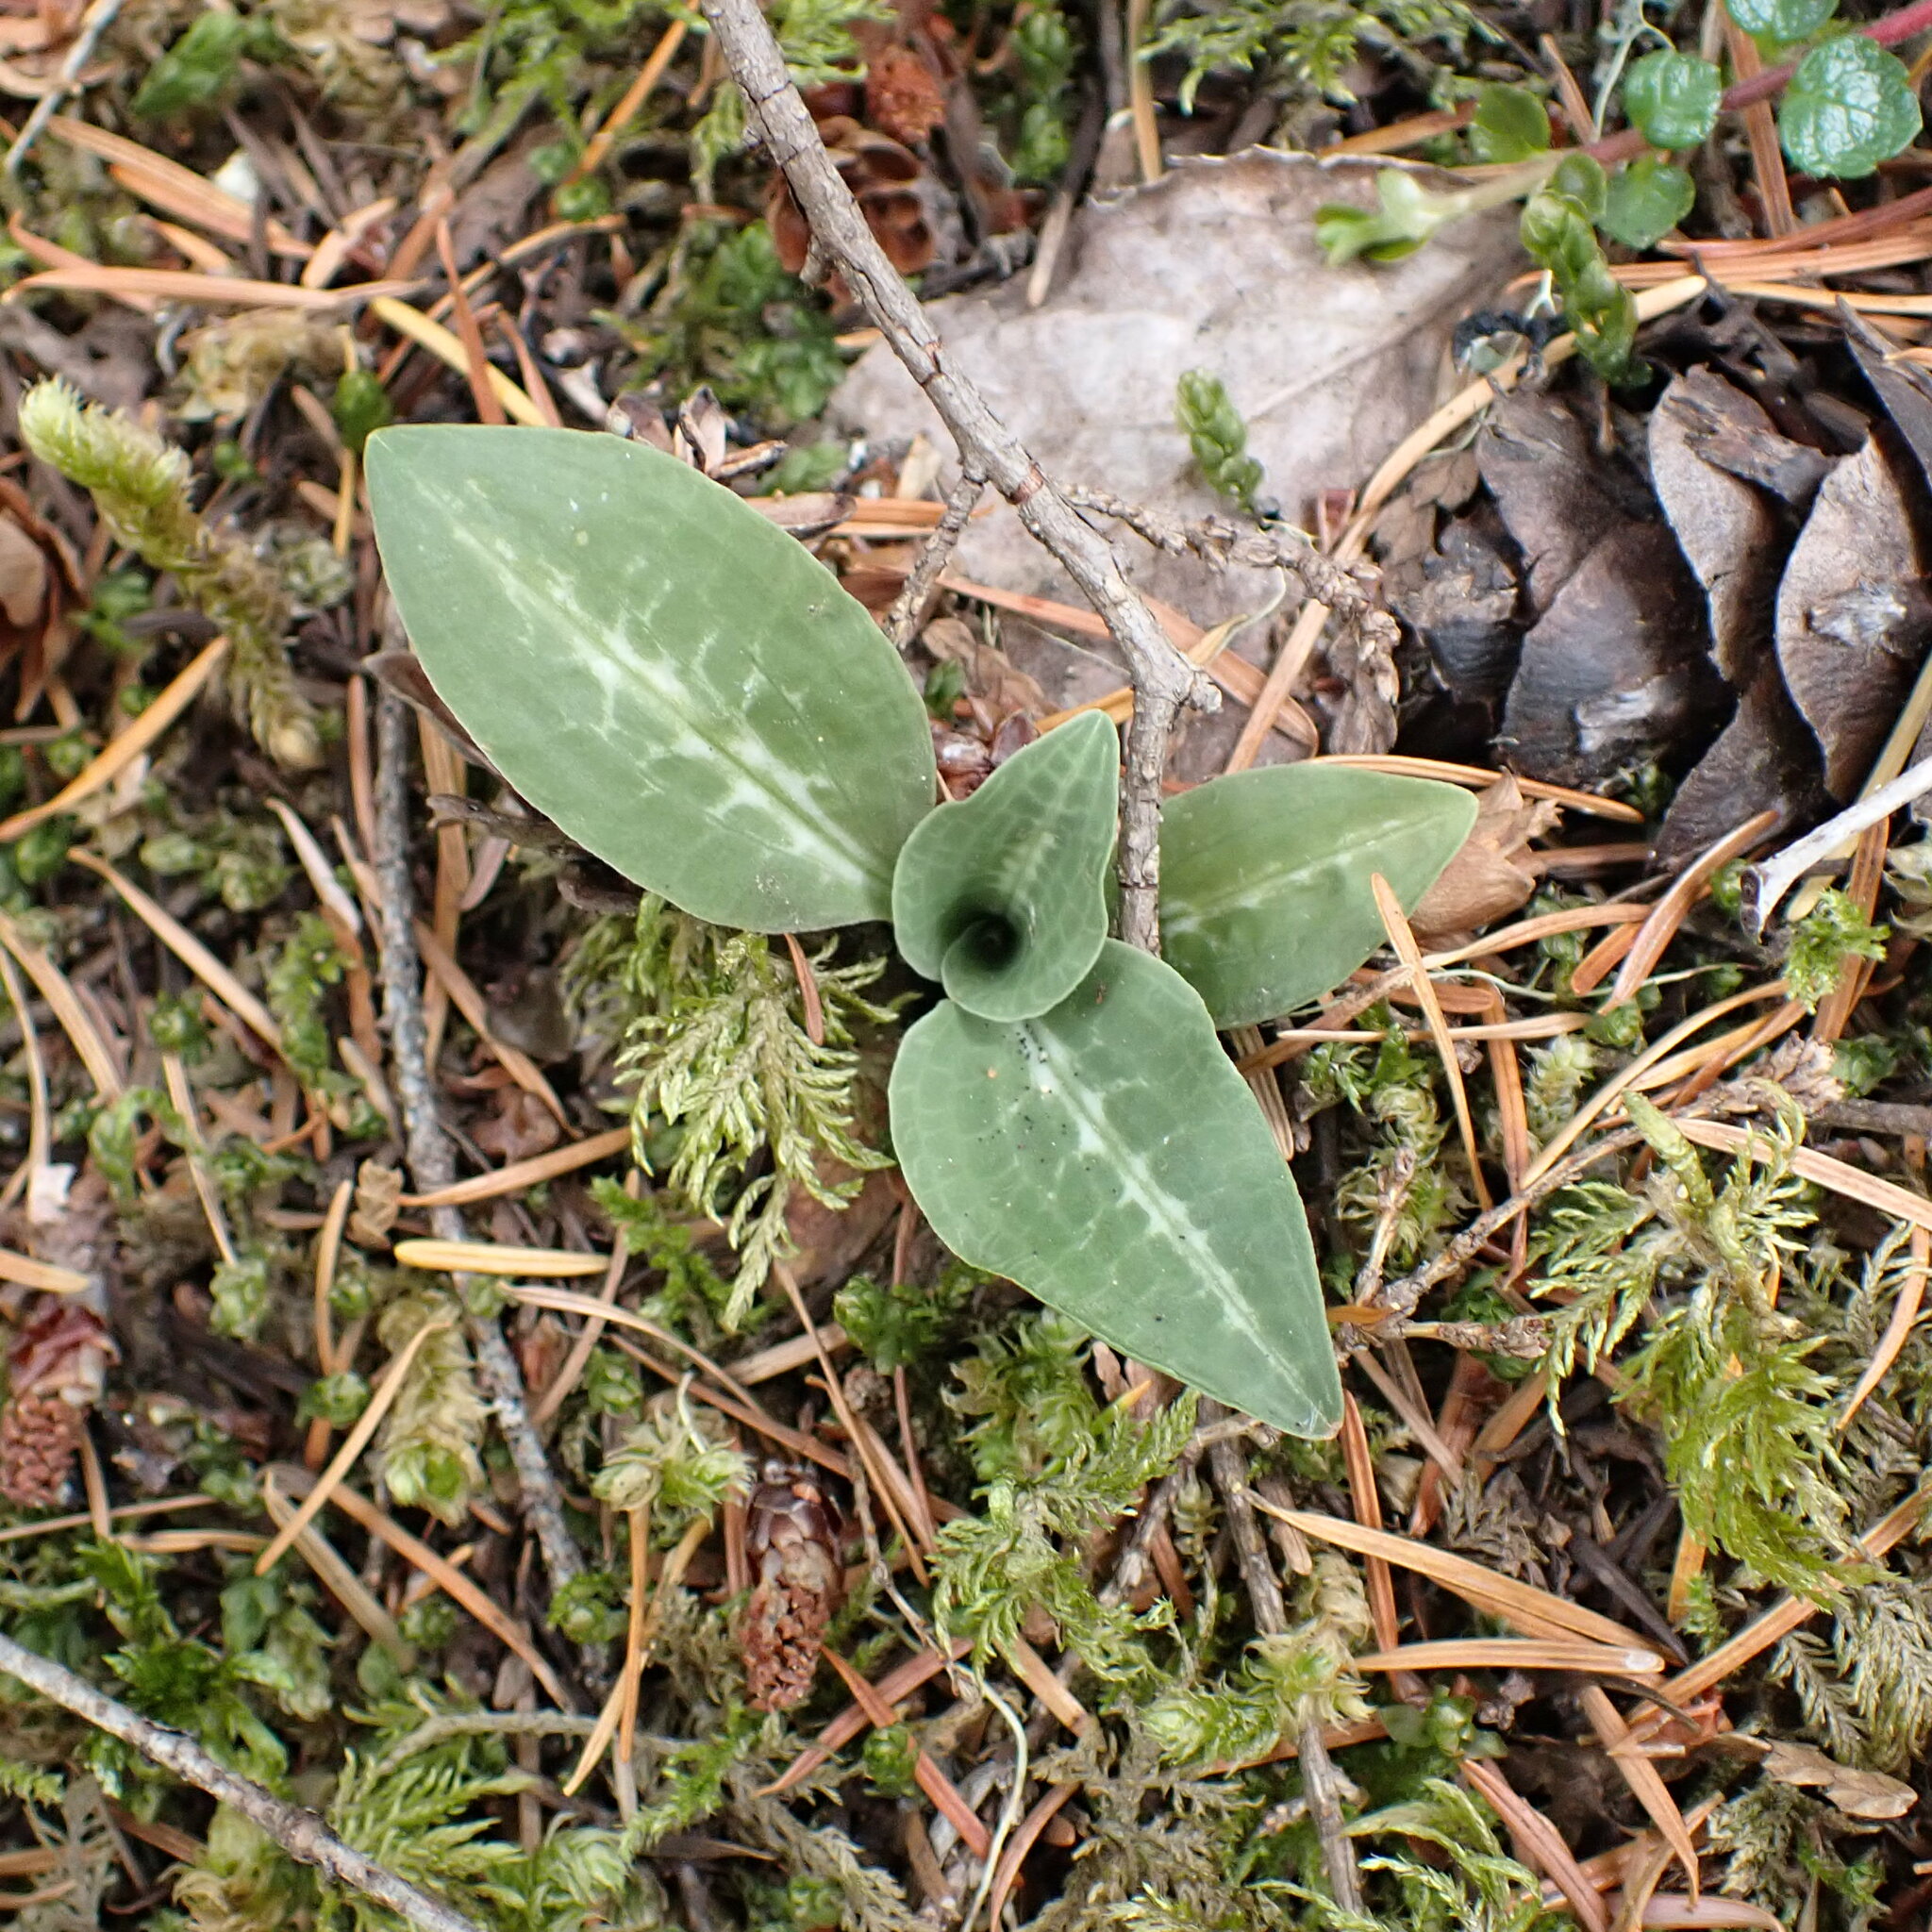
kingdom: Plantae
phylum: Tracheophyta
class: Liliopsida
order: Asparagales
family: Orchidaceae
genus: Goodyera
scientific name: Goodyera oblongifolia
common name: Giant rattlesnake-plantain
